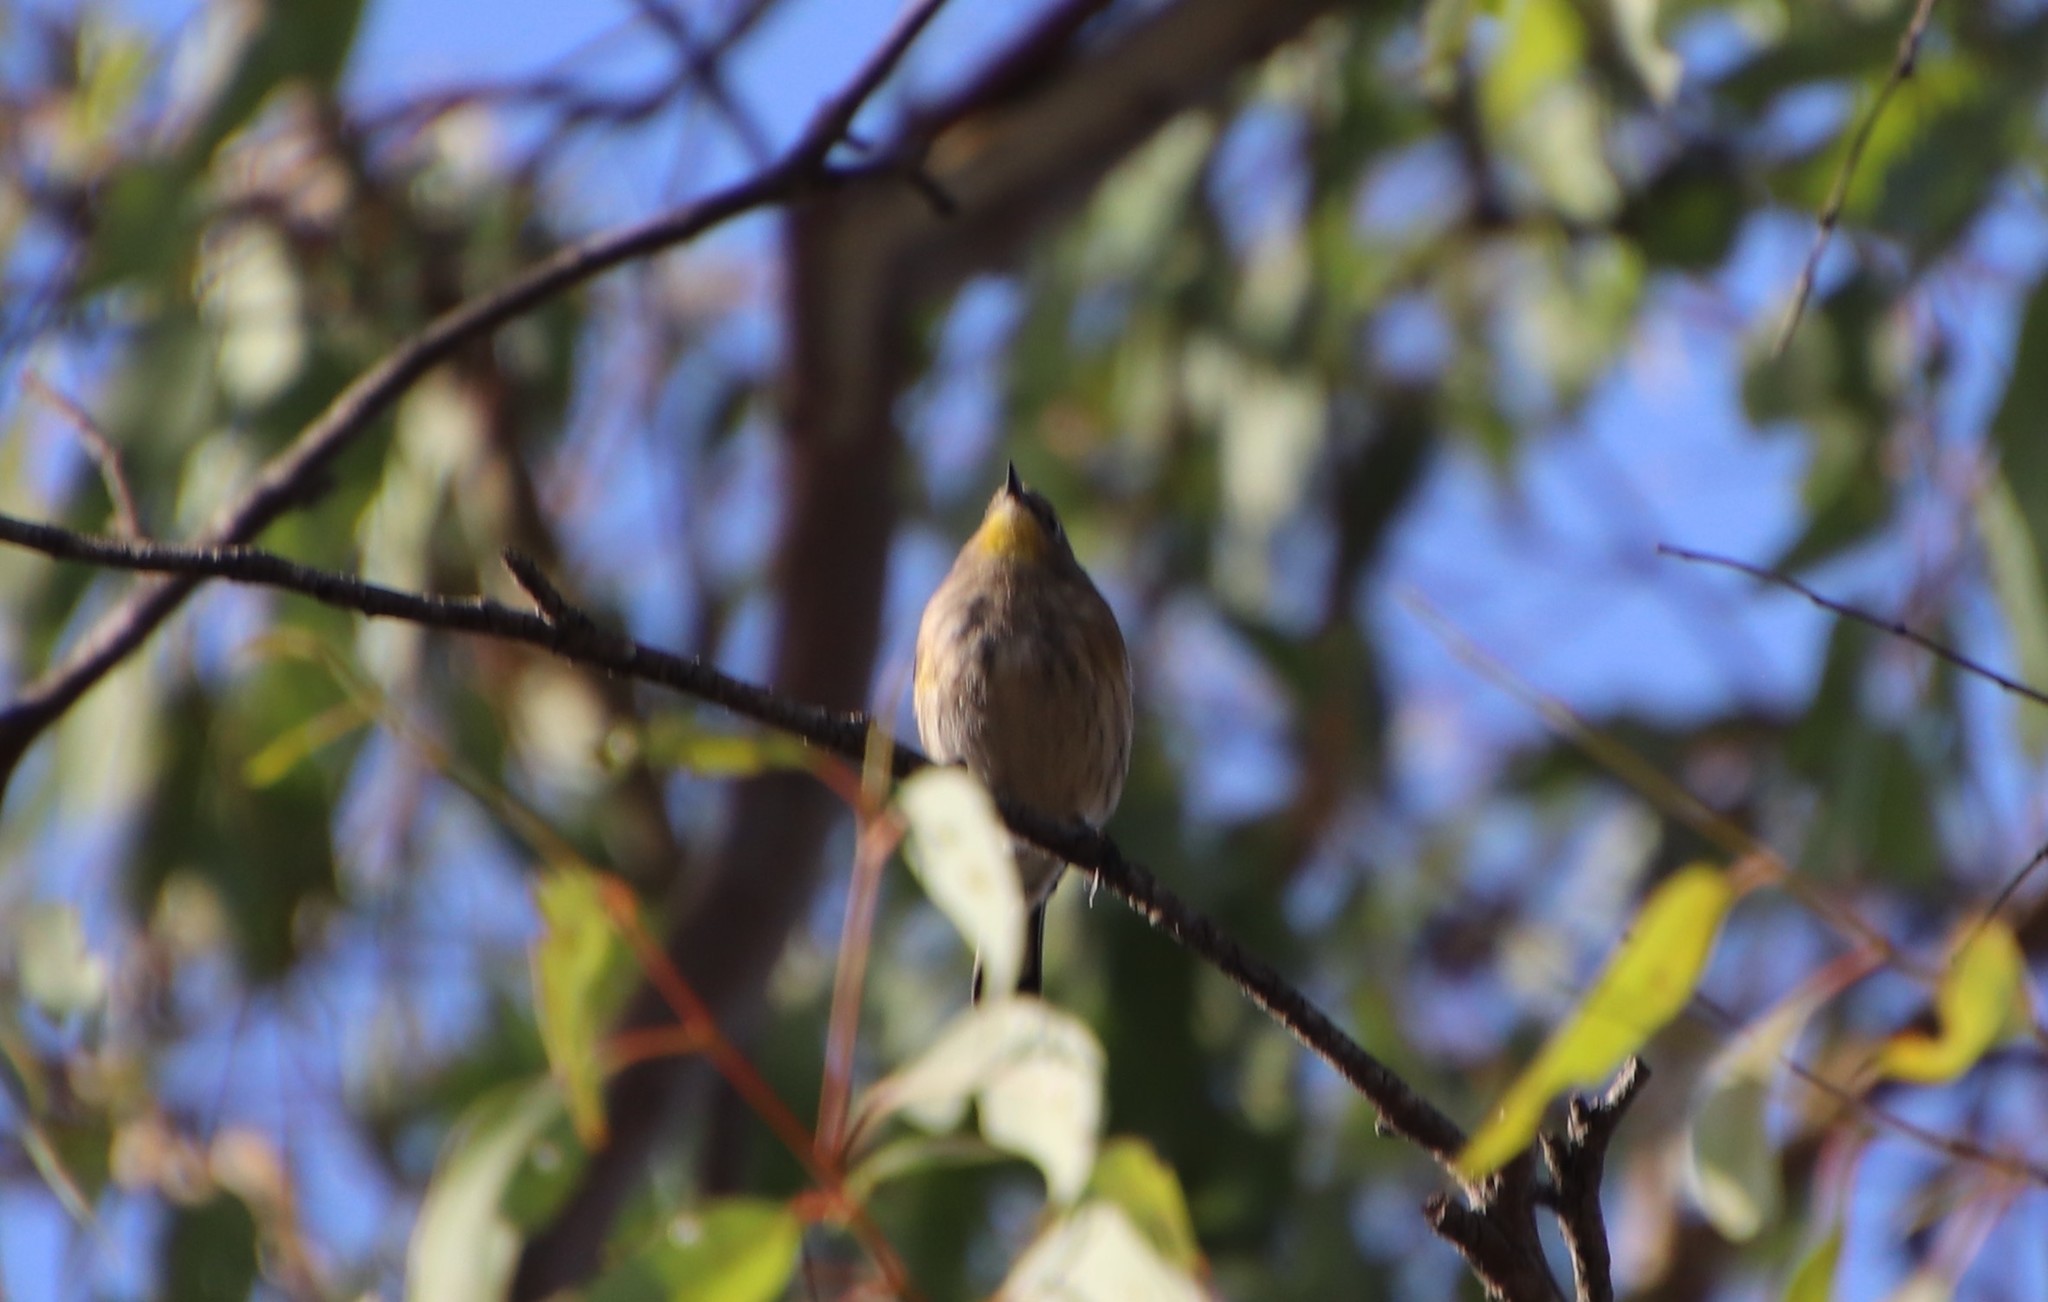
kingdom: Animalia
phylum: Chordata
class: Aves
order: Passeriformes
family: Parulidae
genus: Setophaga
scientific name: Setophaga auduboni
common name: Audubon's warbler
